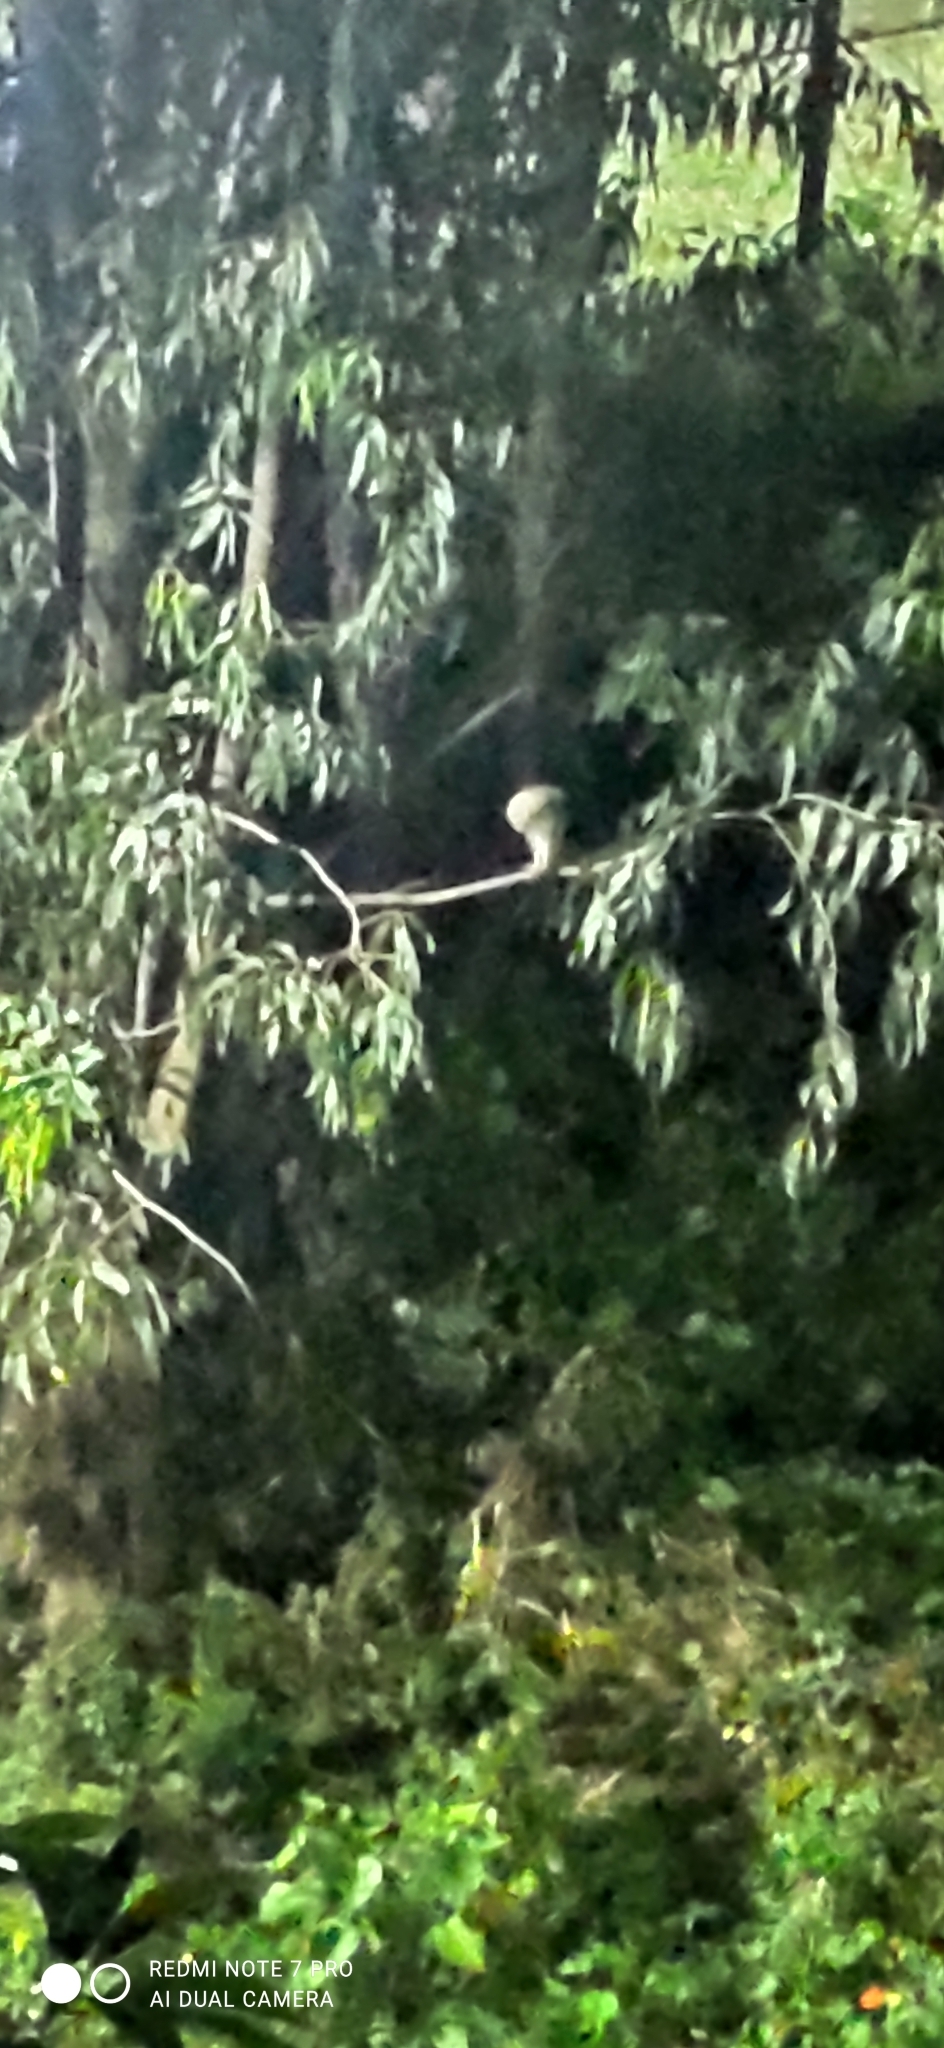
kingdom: Animalia
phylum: Chordata
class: Aves
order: Strigiformes
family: Tytonidae
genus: Tyto
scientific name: Tyto alba
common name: Barn owl
